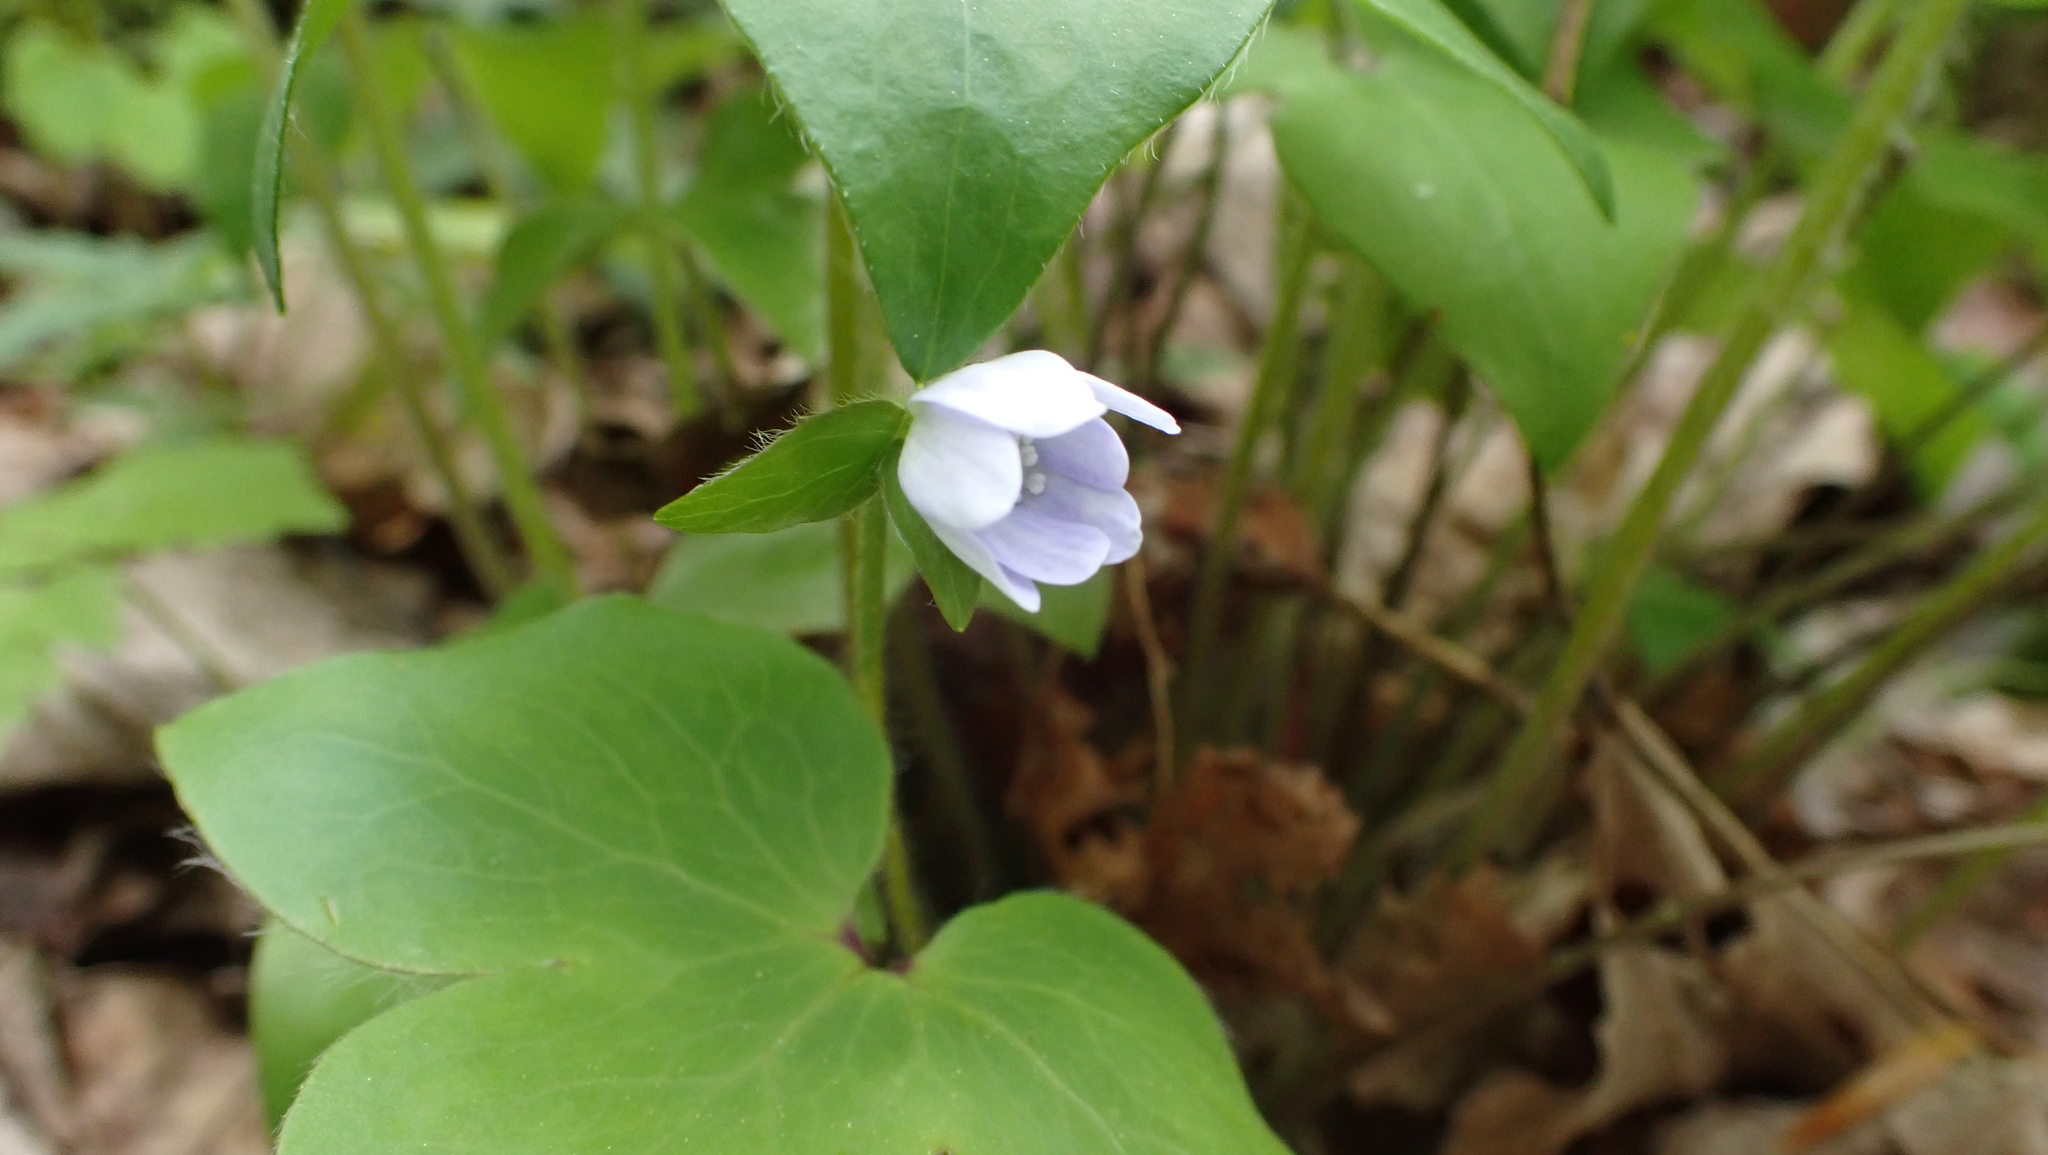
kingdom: Plantae
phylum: Tracheophyta
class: Magnoliopsida
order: Ranunculales
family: Ranunculaceae
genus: Hepatica
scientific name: Hepatica acutiloba
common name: Sharp-lobed hepatica
